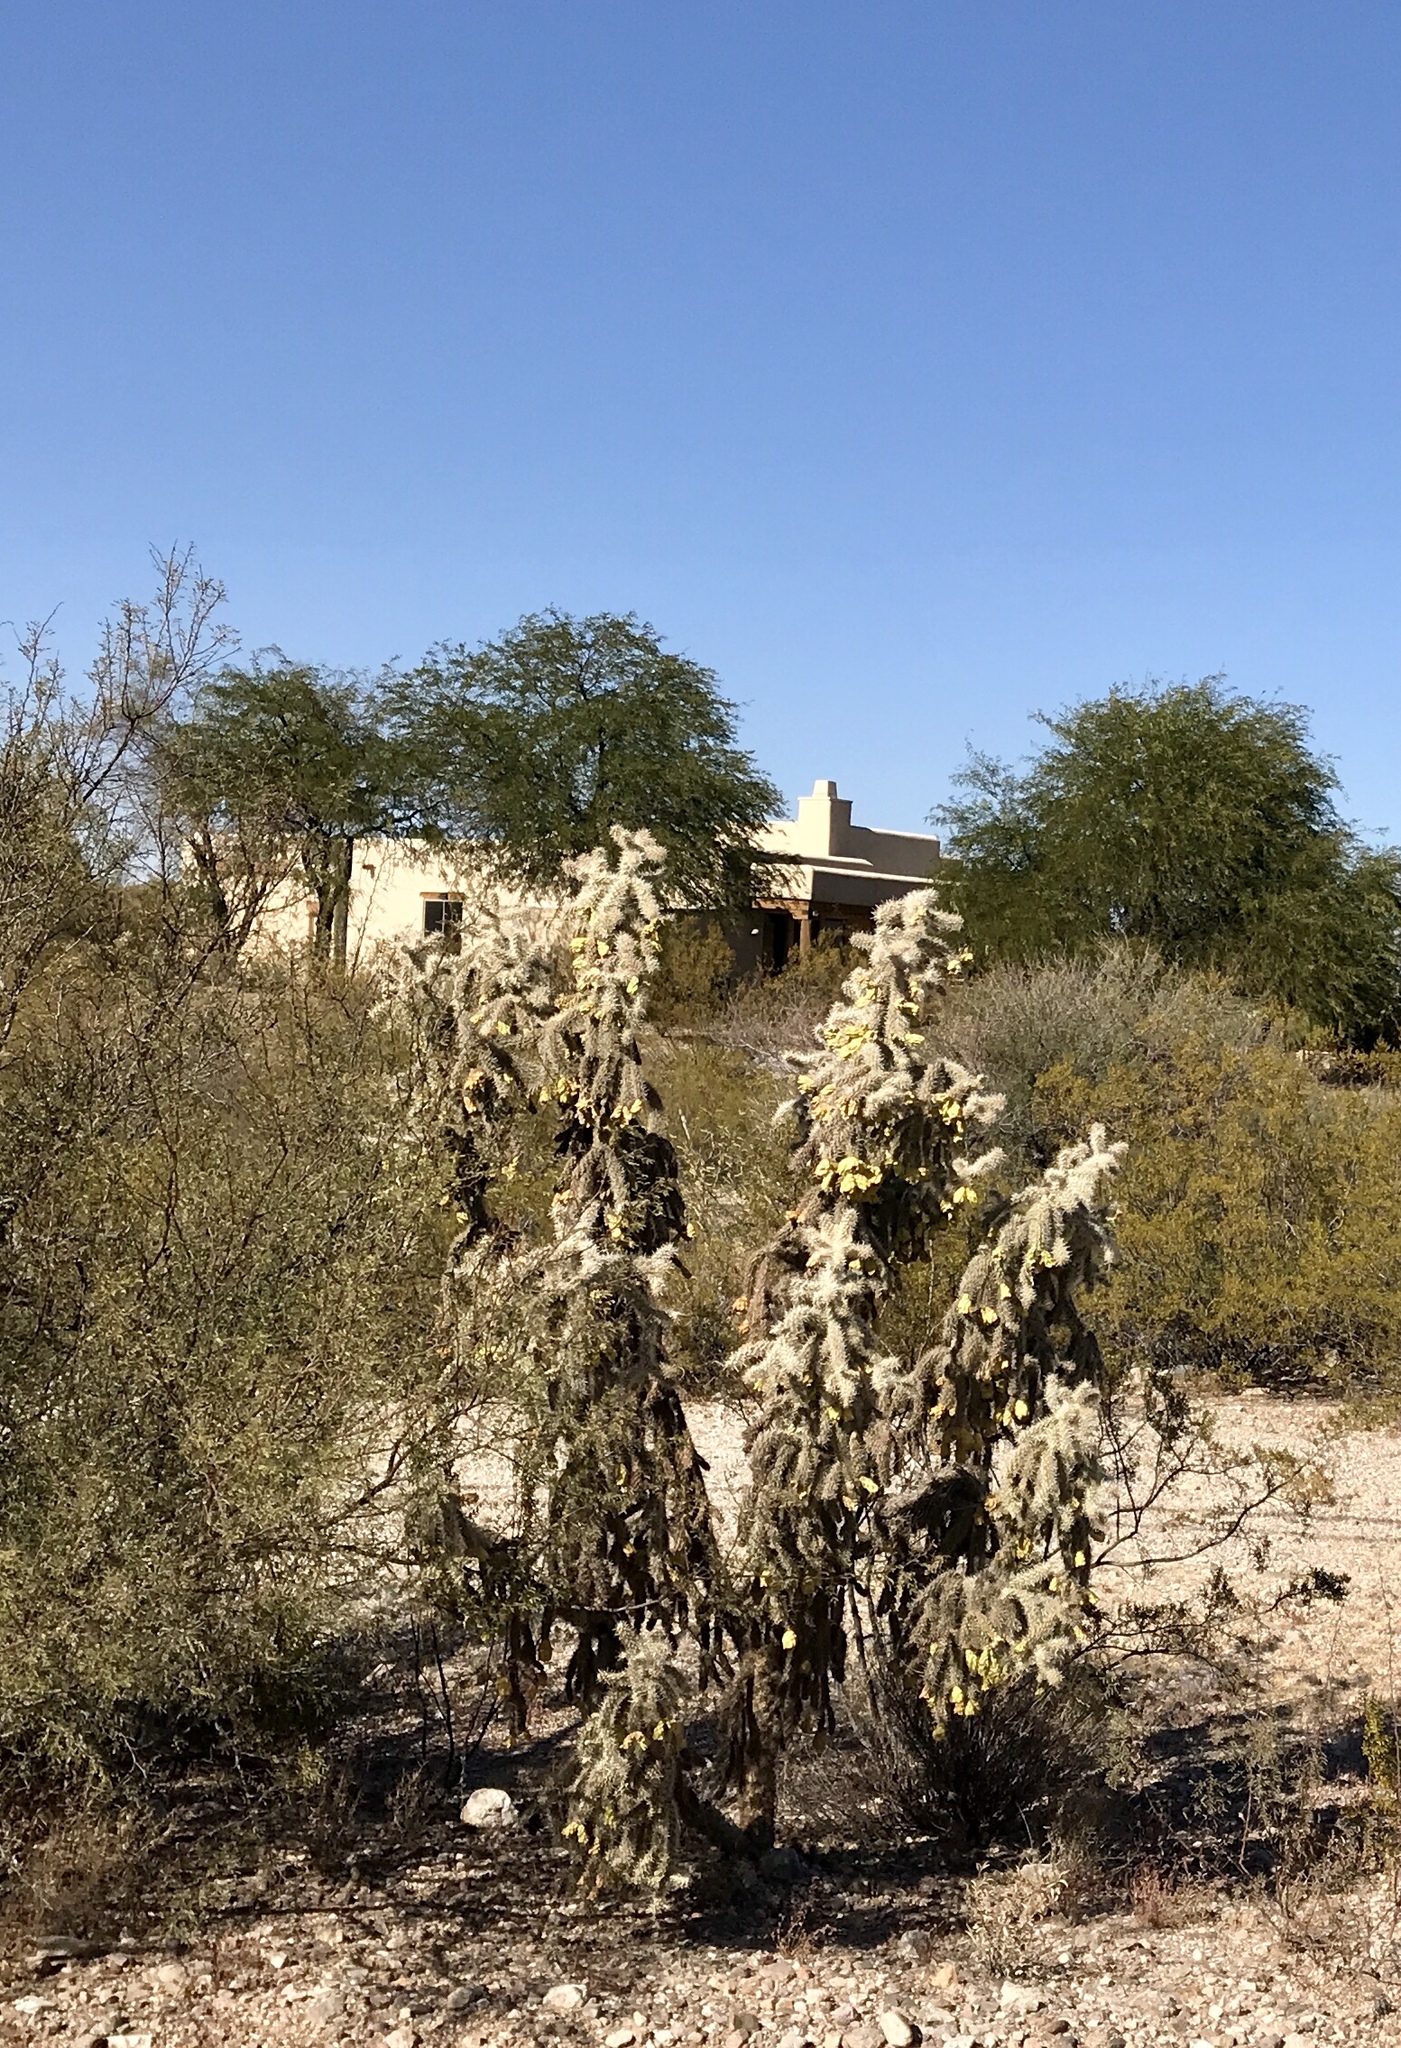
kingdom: Plantae
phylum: Tracheophyta
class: Magnoliopsida
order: Caryophyllales
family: Cactaceae
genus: Cylindropuntia
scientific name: Cylindropuntia fulgida
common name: Jumping cholla
